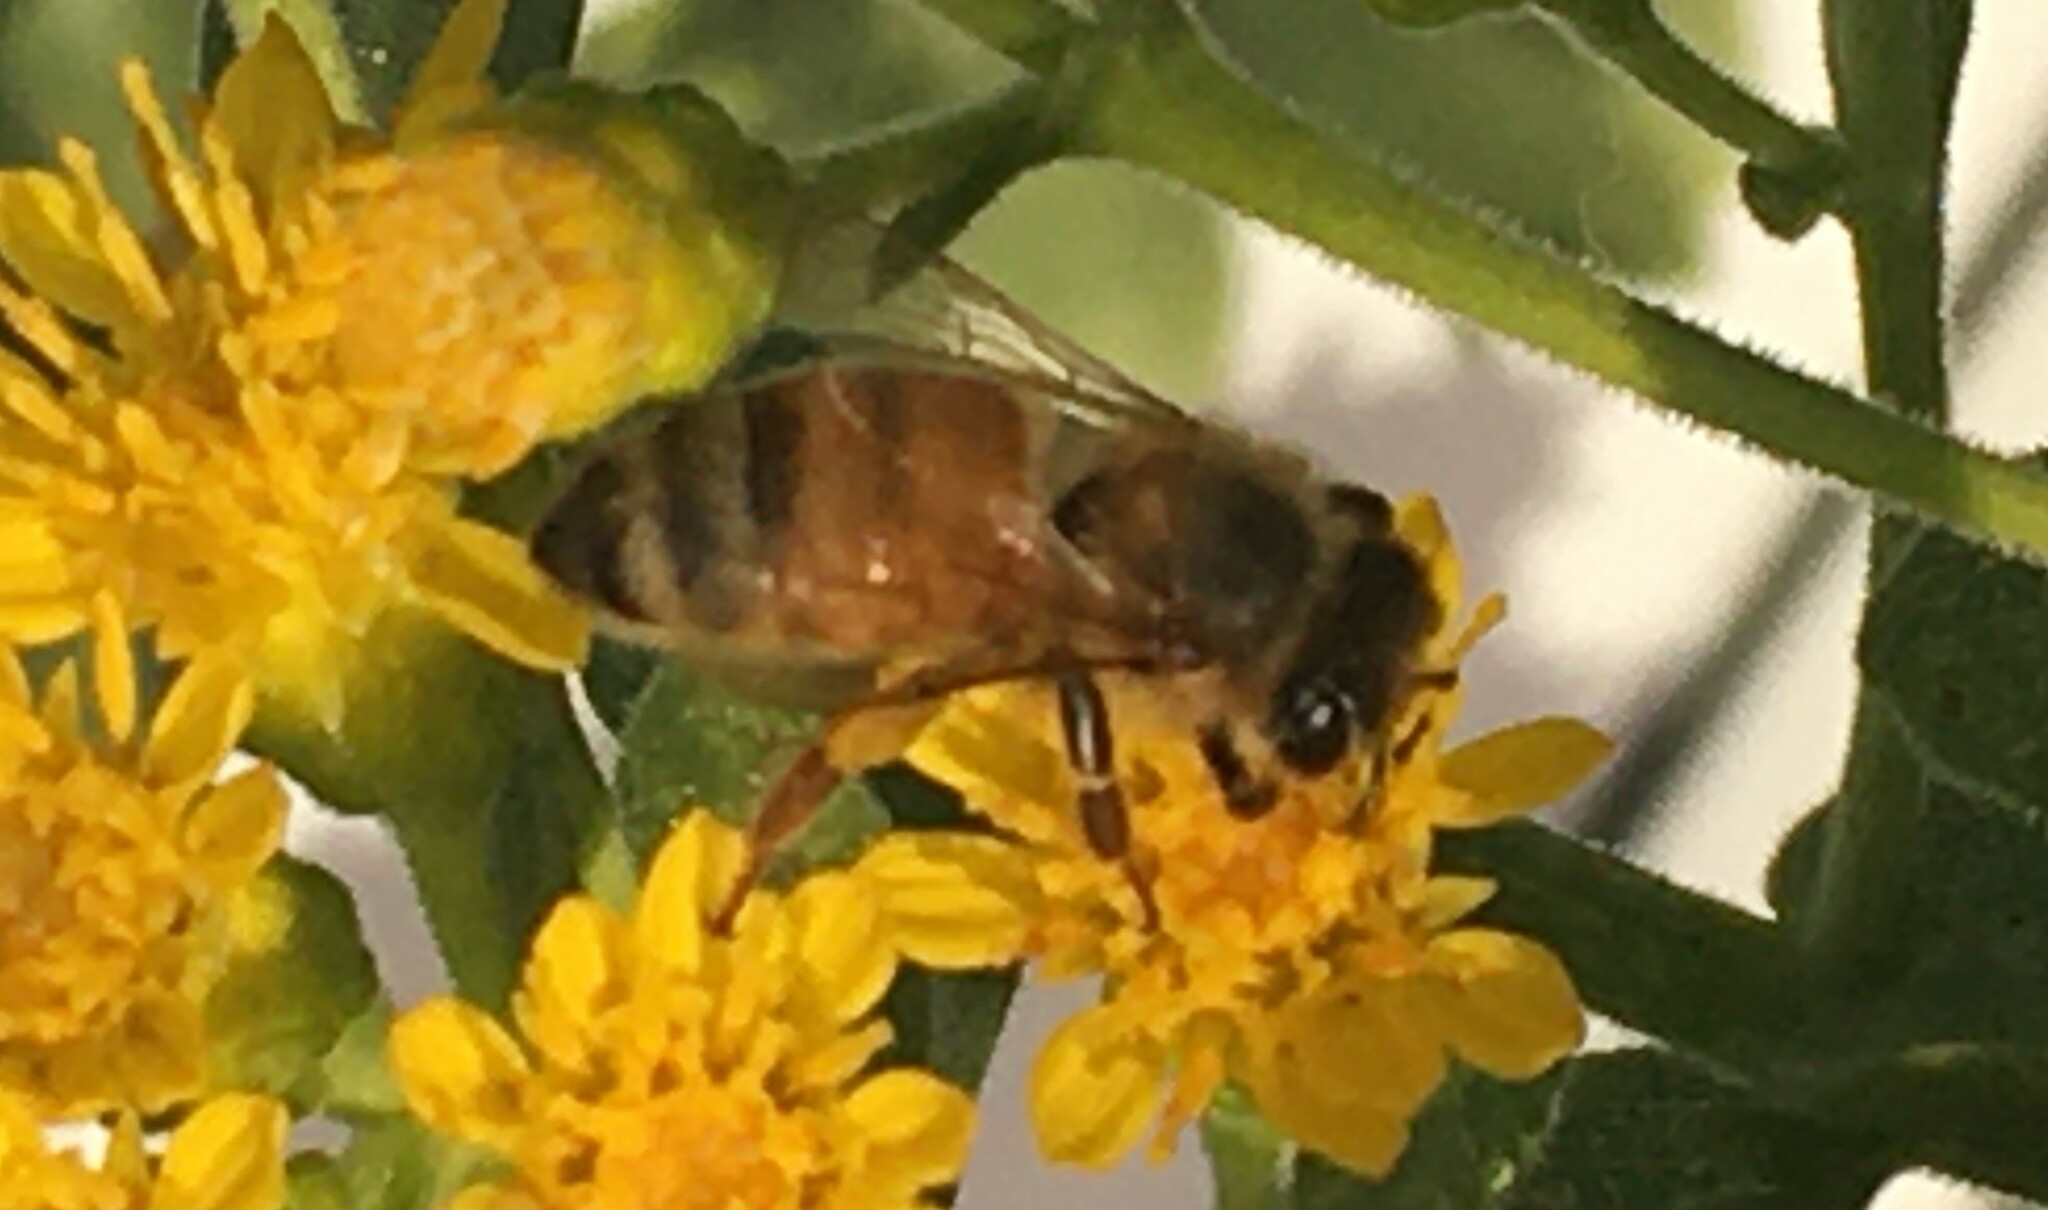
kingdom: Animalia
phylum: Arthropoda
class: Insecta
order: Hymenoptera
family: Apidae
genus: Apis
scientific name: Apis mellifera
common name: Honey bee
